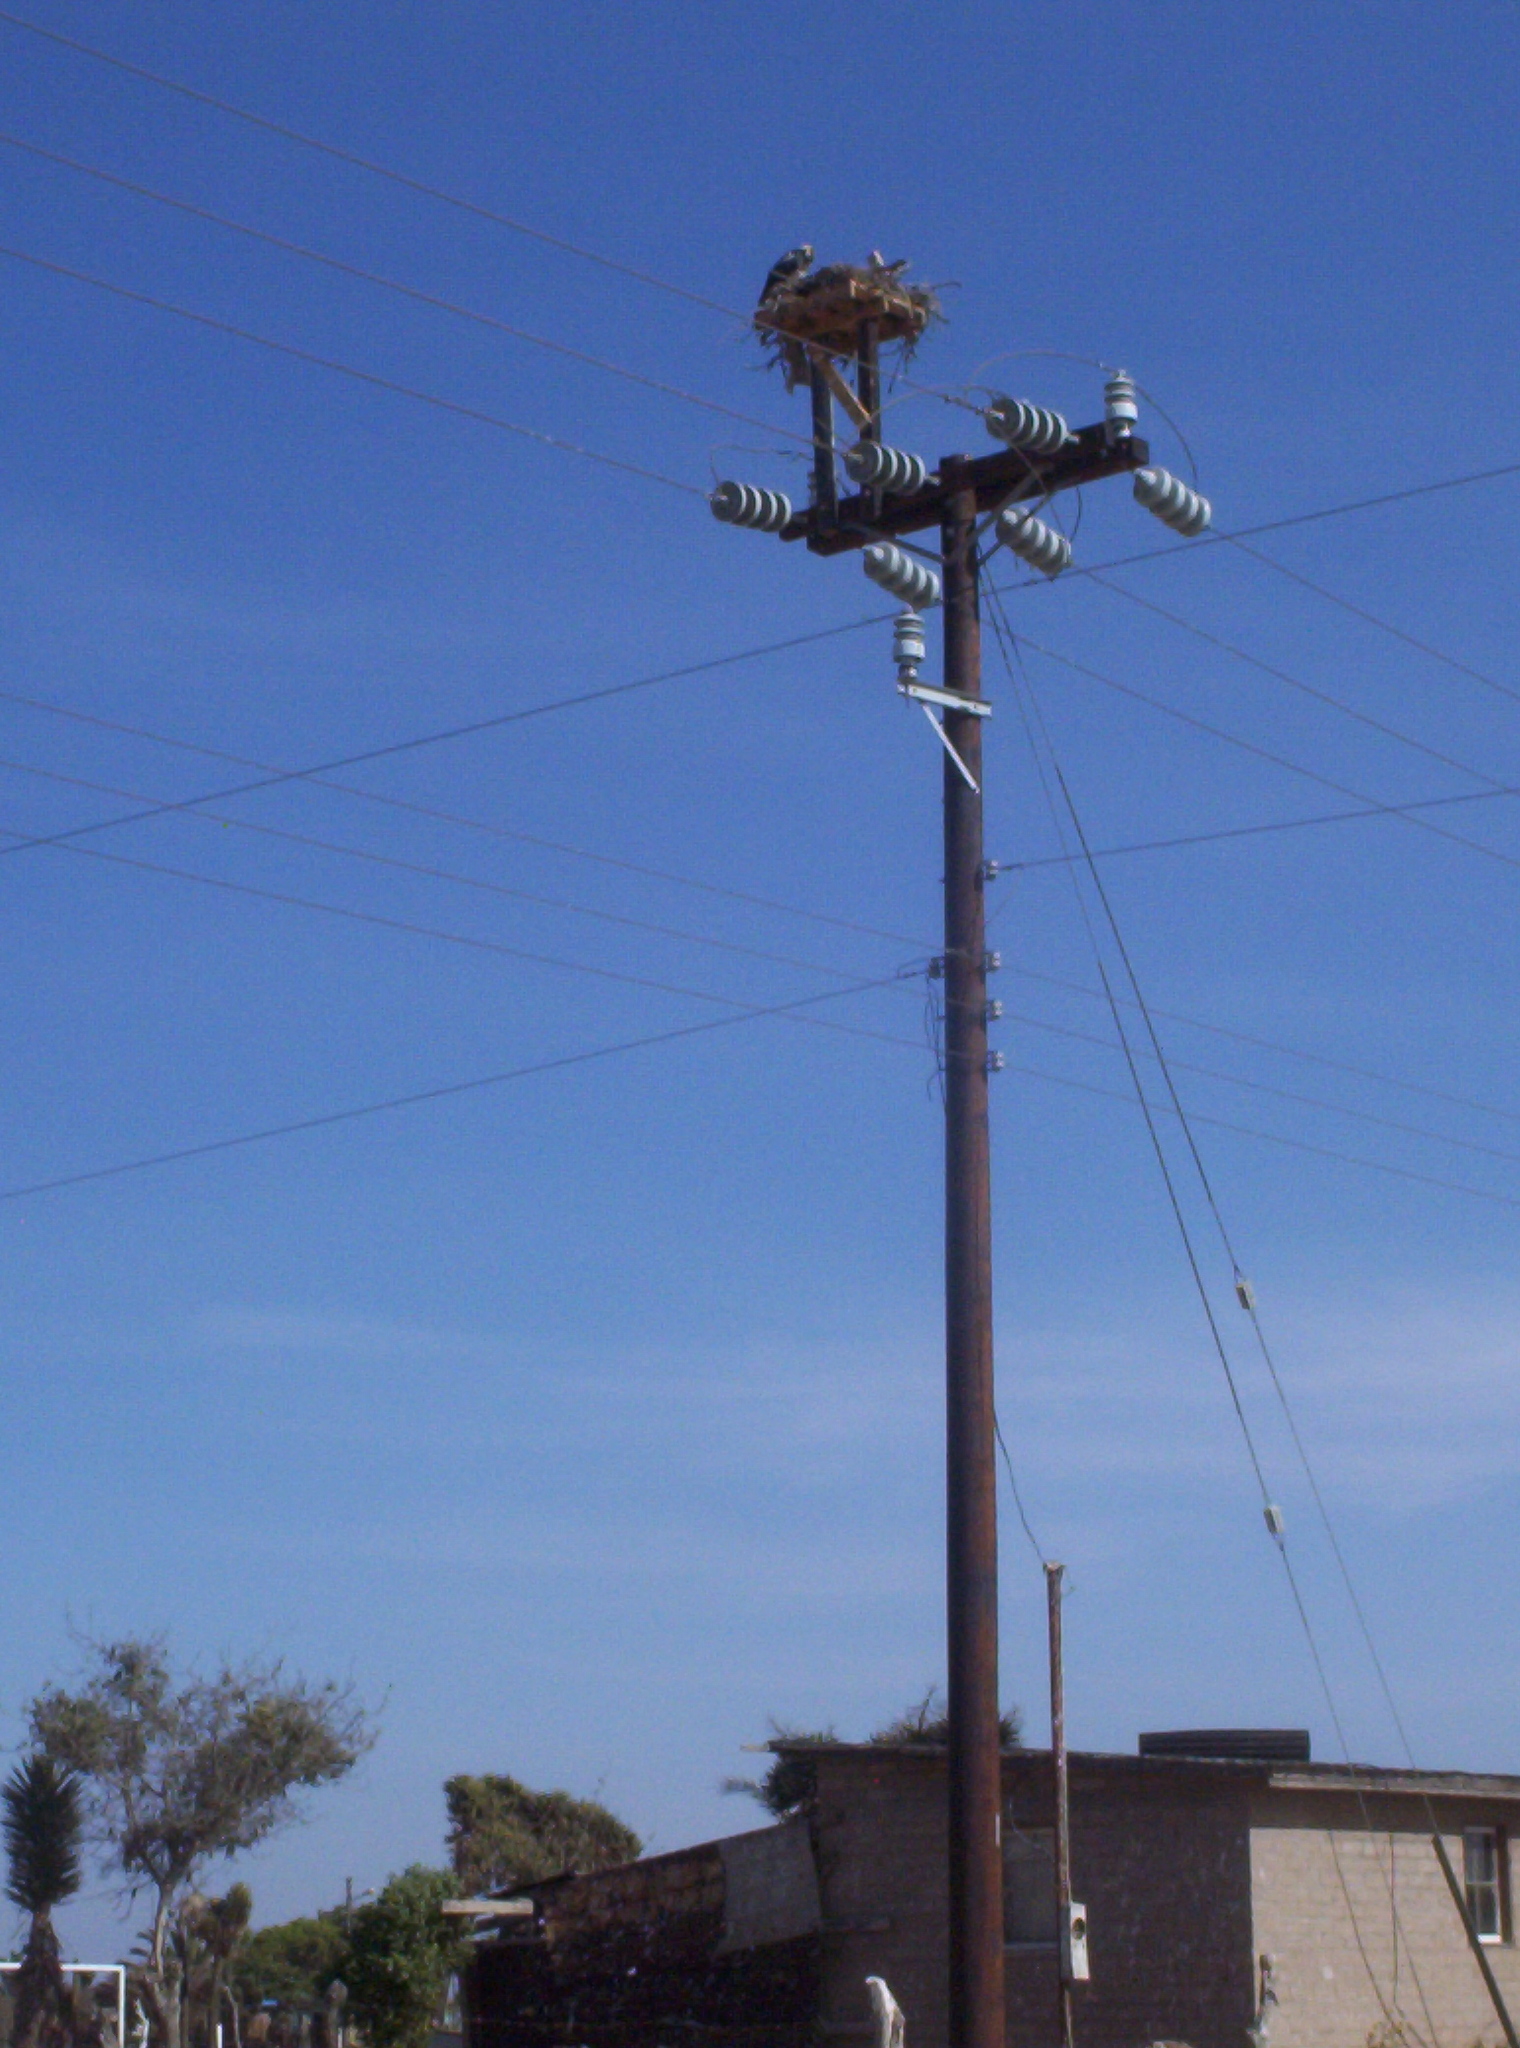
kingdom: Animalia
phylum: Chordata
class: Aves
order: Accipitriformes
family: Pandionidae
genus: Pandion
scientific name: Pandion haliaetus
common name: Osprey
